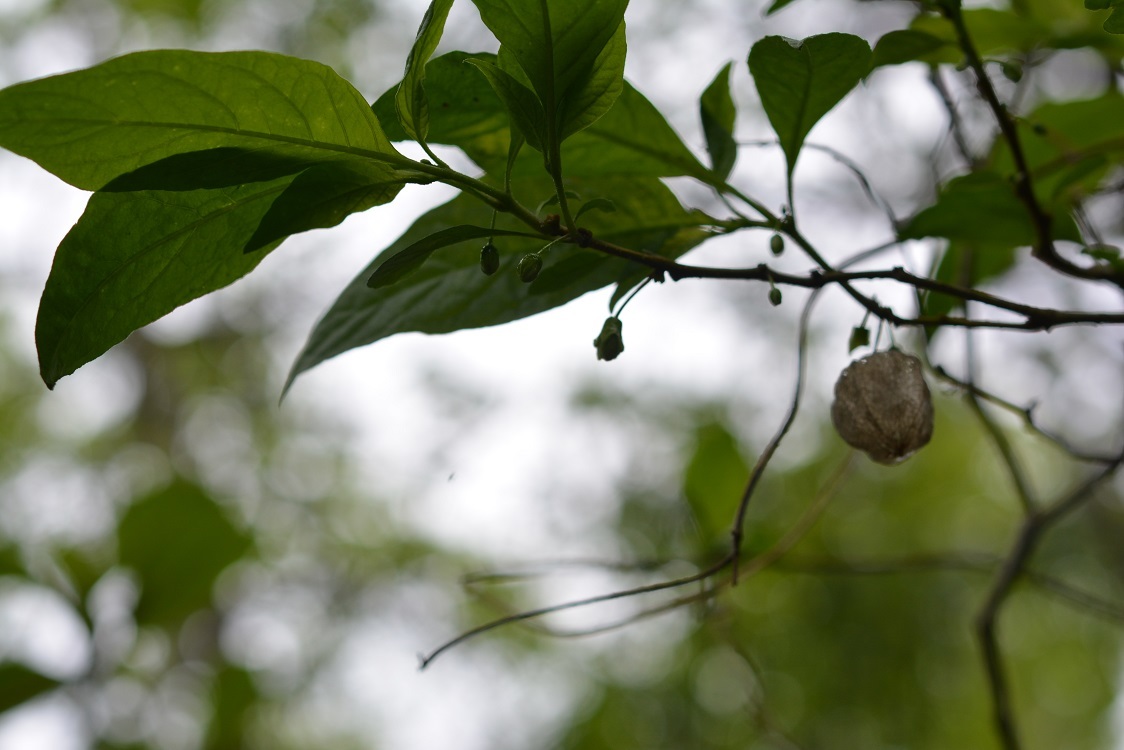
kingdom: Plantae
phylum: Tracheophyta
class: Magnoliopsida
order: Solanales
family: Solanaceae
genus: Physalis
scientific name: Physalis campechiana
